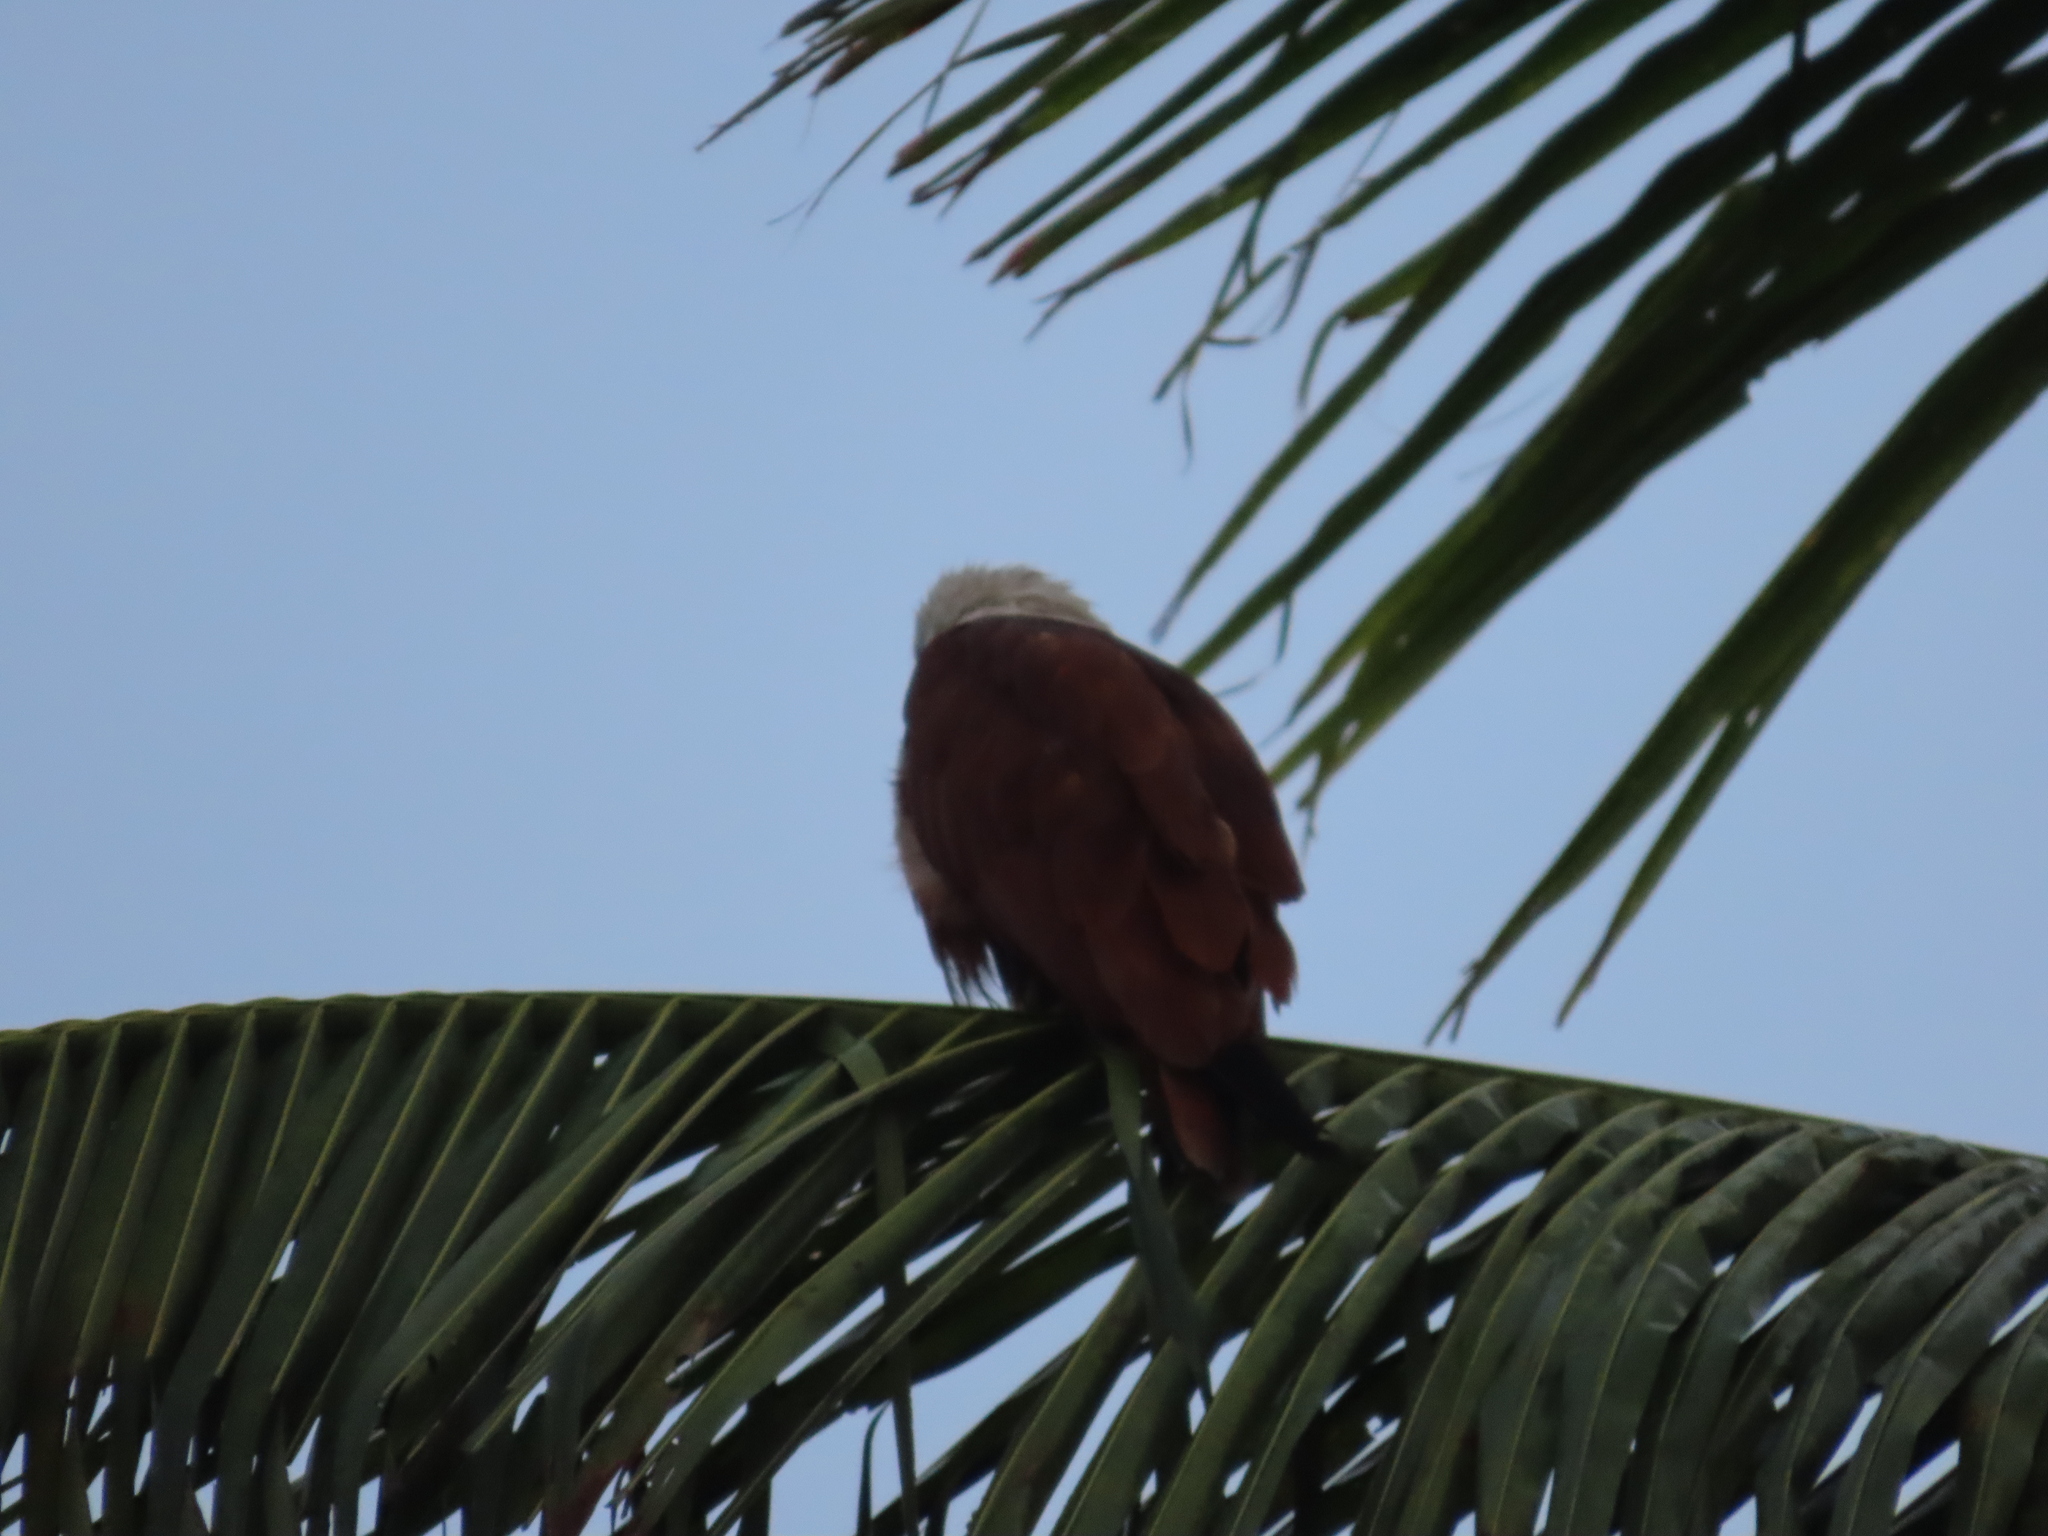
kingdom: Animalia
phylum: Chordata
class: Aves
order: Accipitriformes
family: Accipitridae
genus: Haliastur
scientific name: Haliastur indus
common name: Brahminy kite
